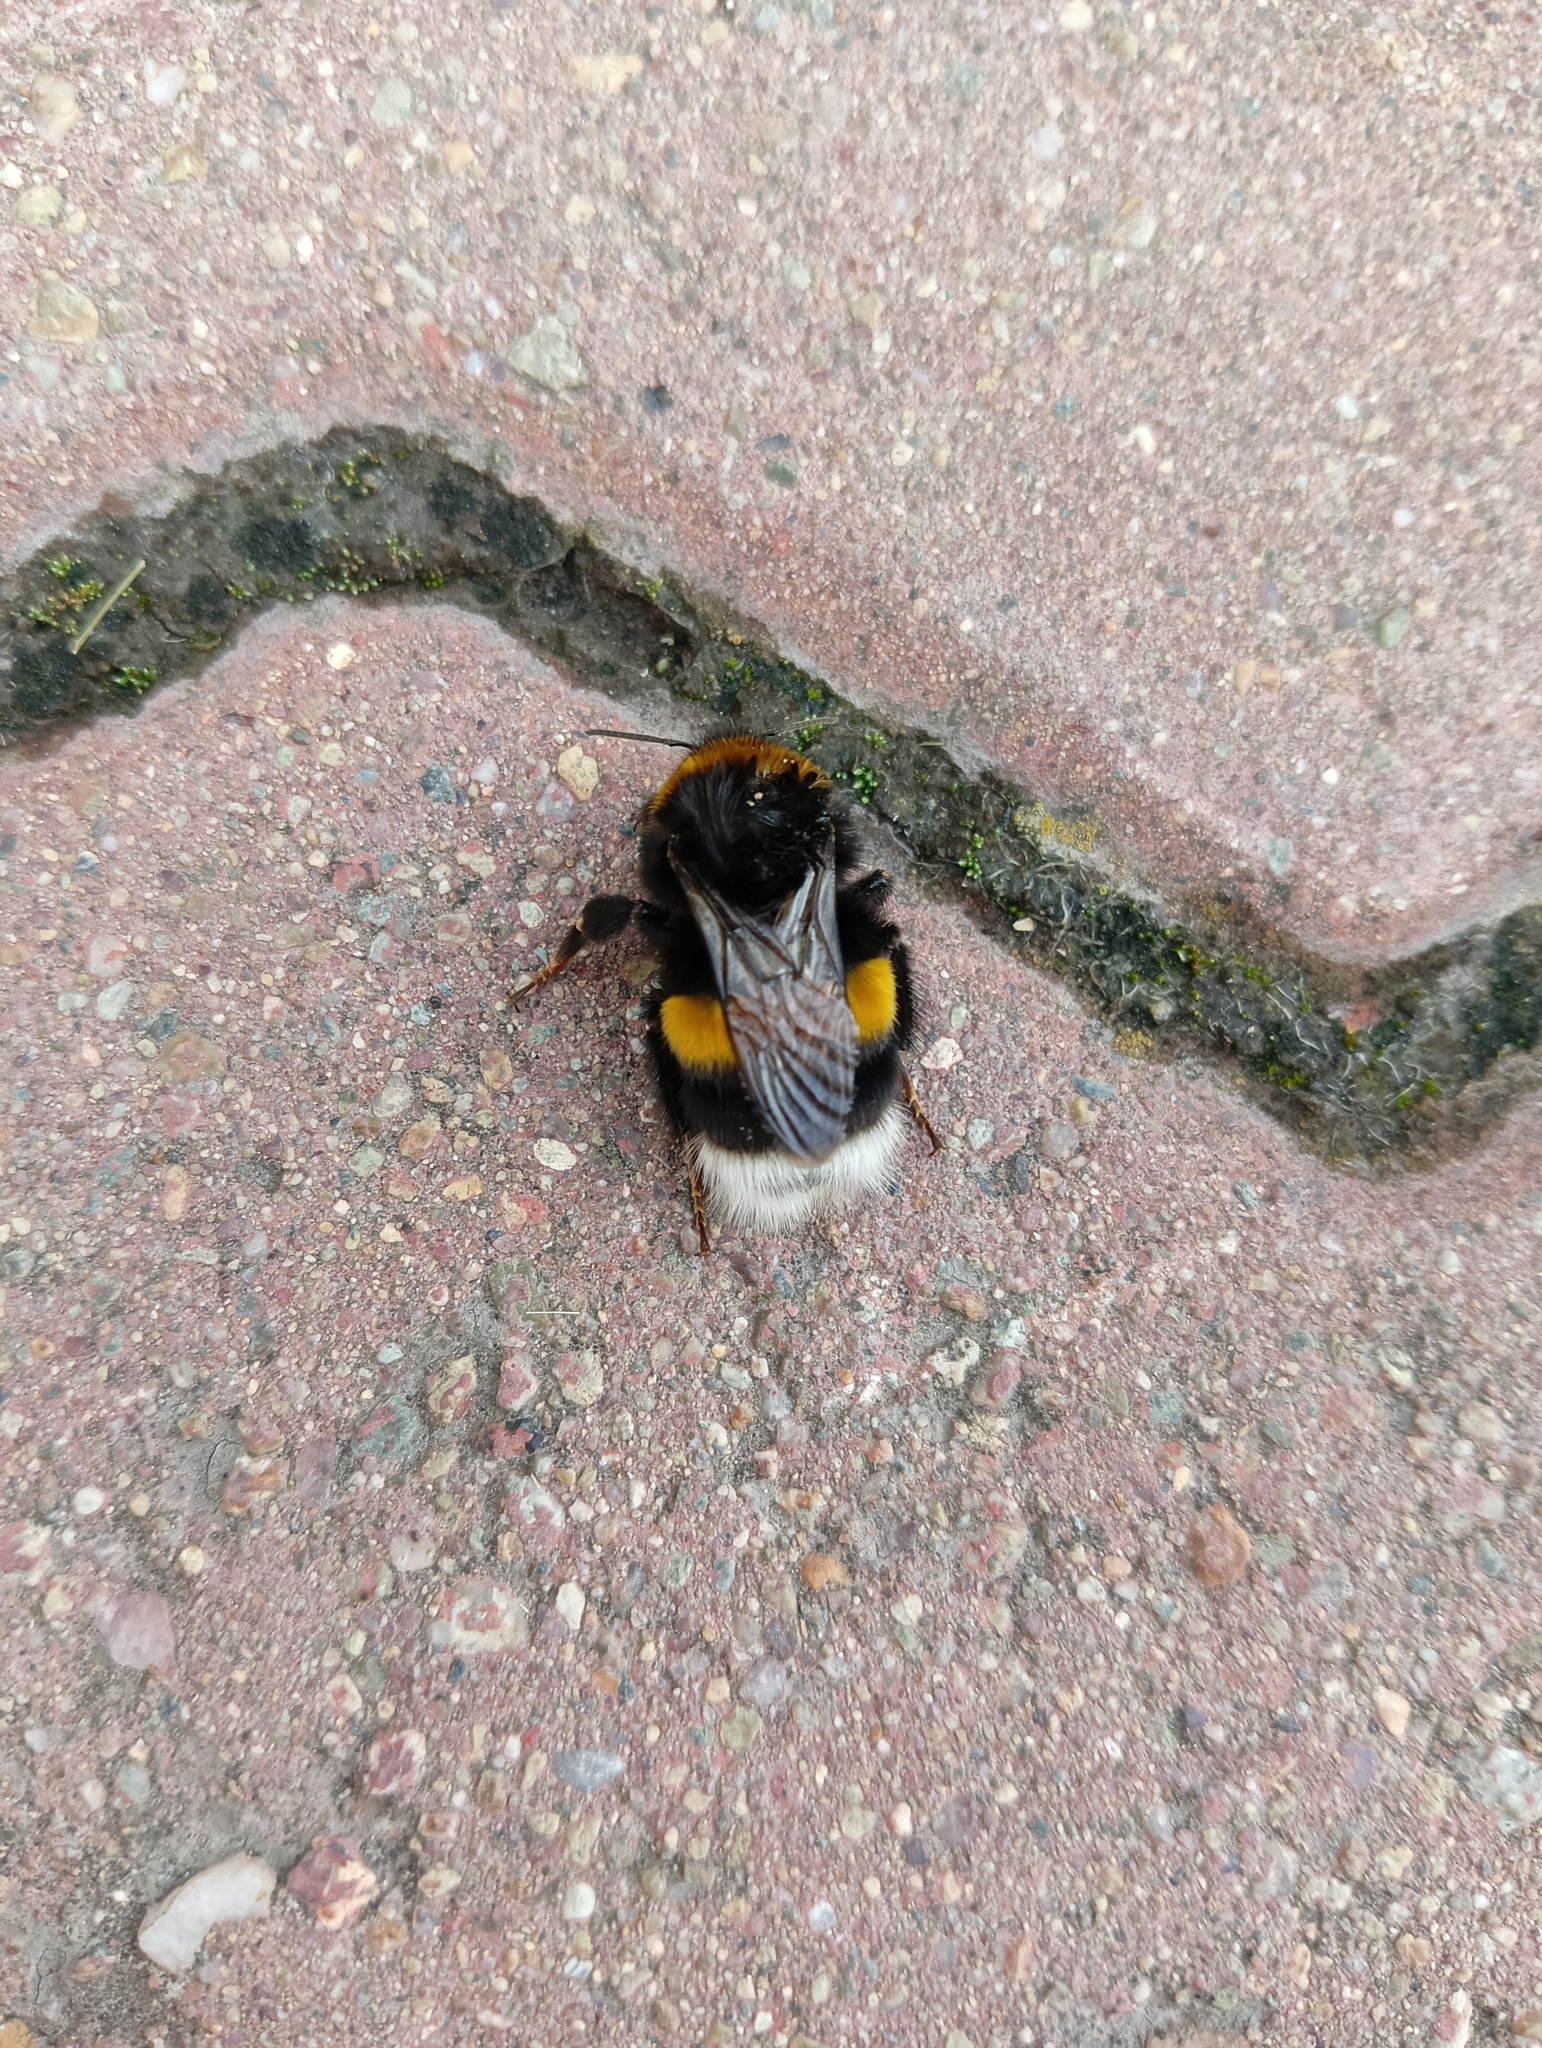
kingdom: Animalia
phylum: Arthropoda
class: Insecta
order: Hymenoptera
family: Apidae
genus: Bombus
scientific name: Bombus
